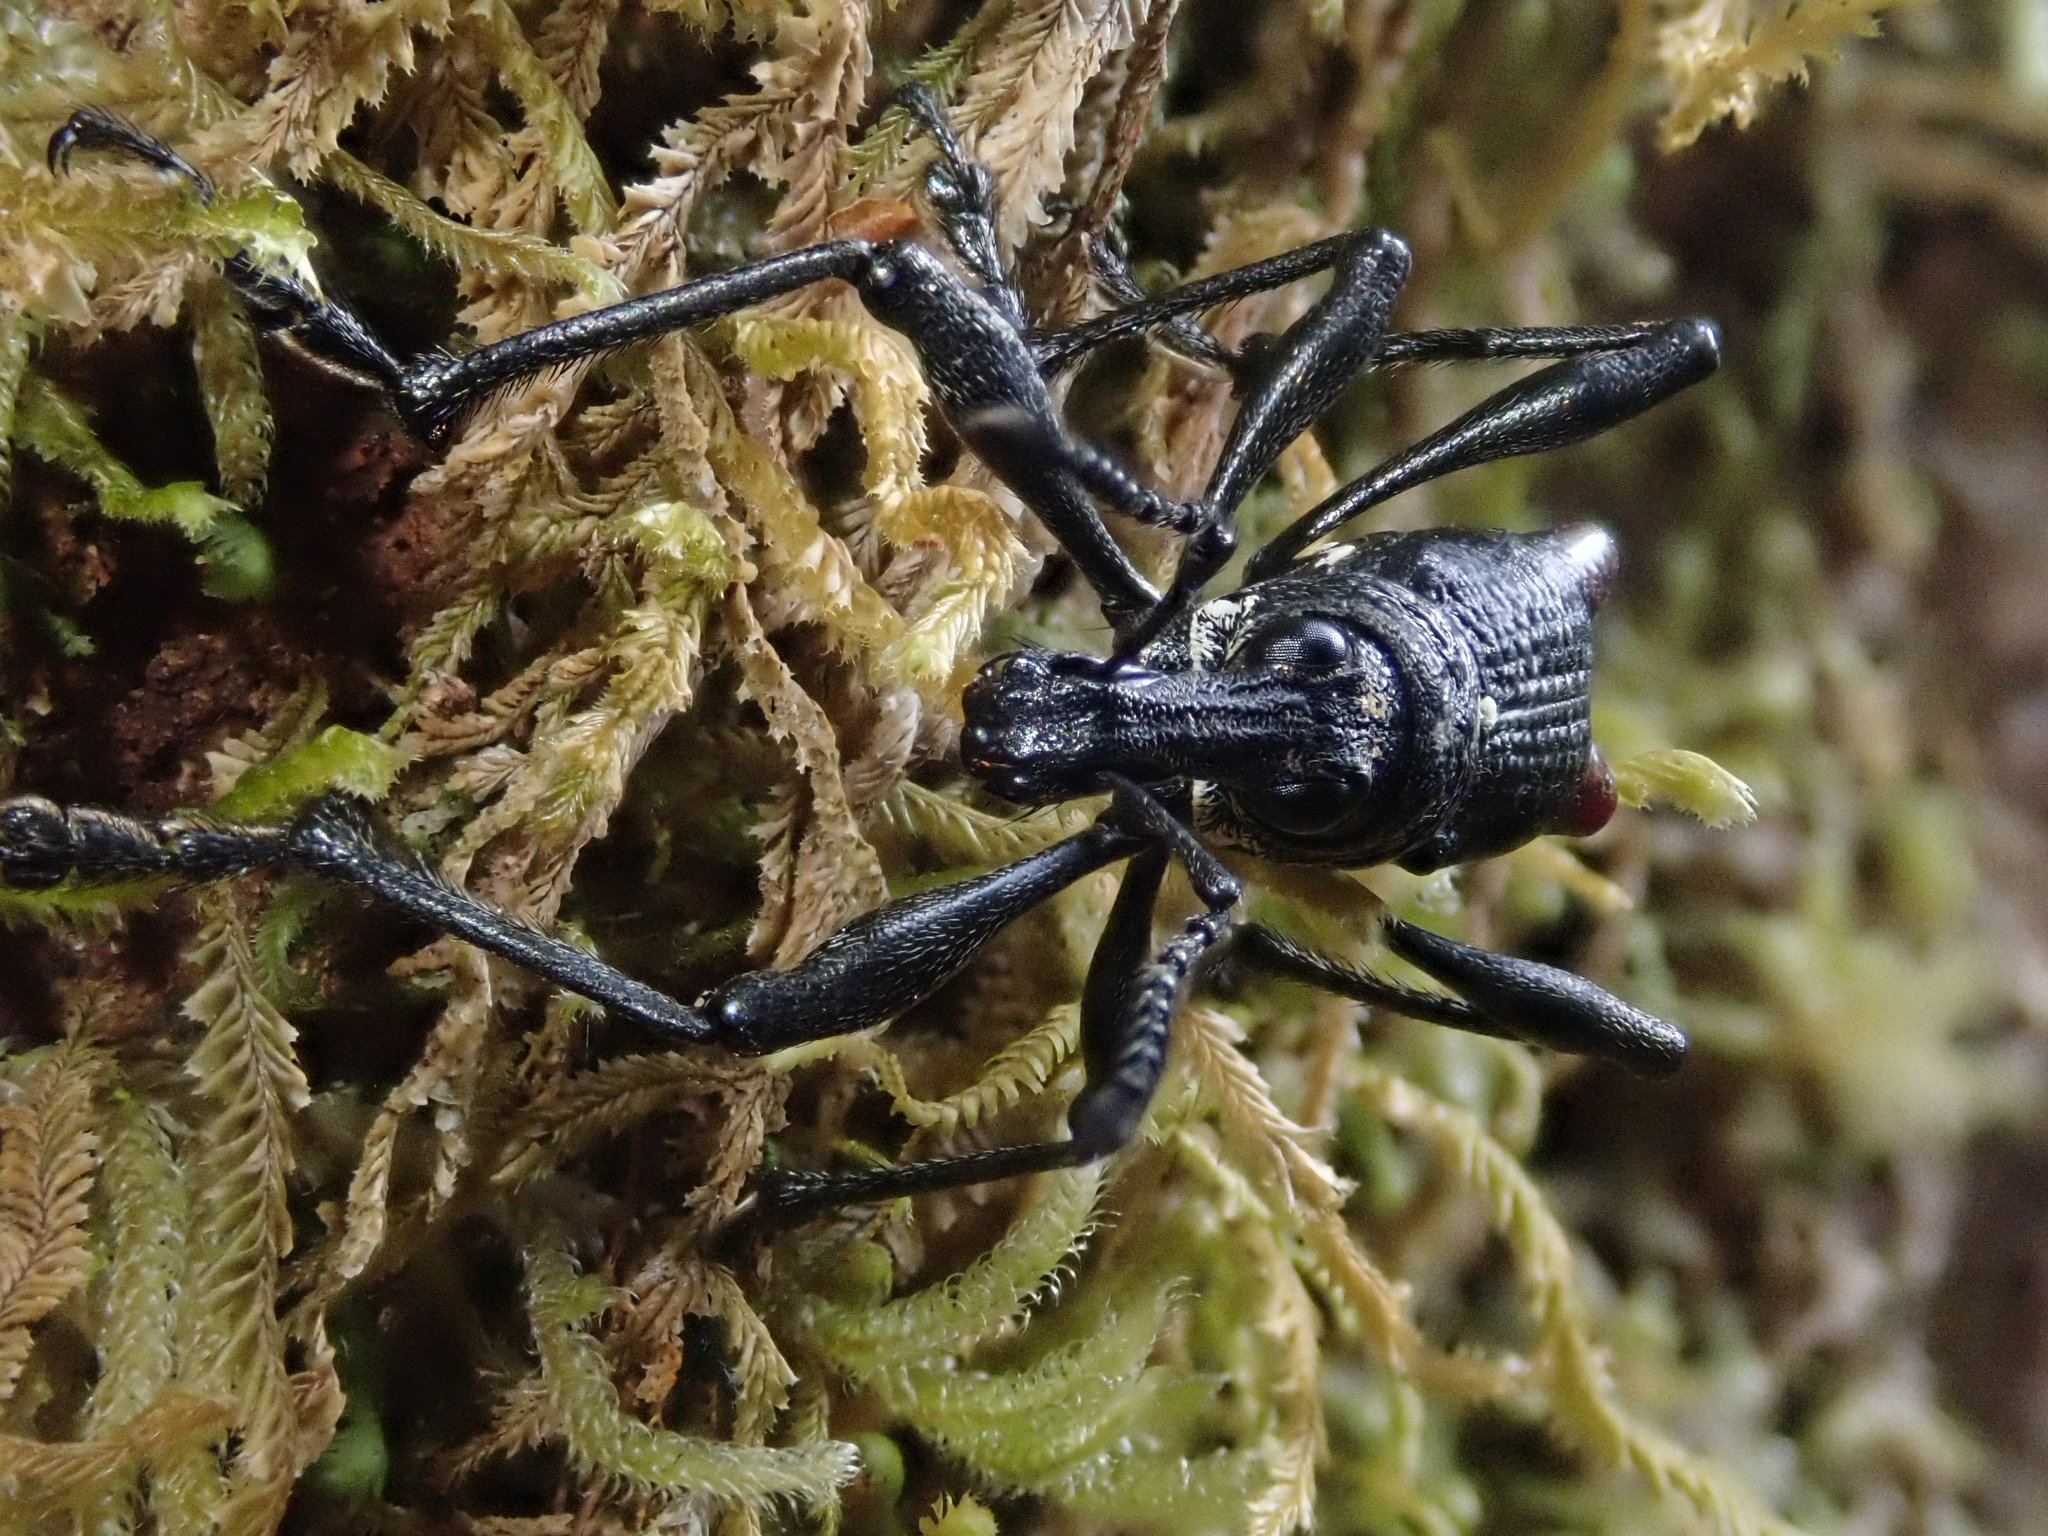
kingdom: Animalia
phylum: Arthropoda
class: Insecta
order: Coleoptera
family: Curculionidae
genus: Alastoropolus
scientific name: Alastoropolus strumosus
